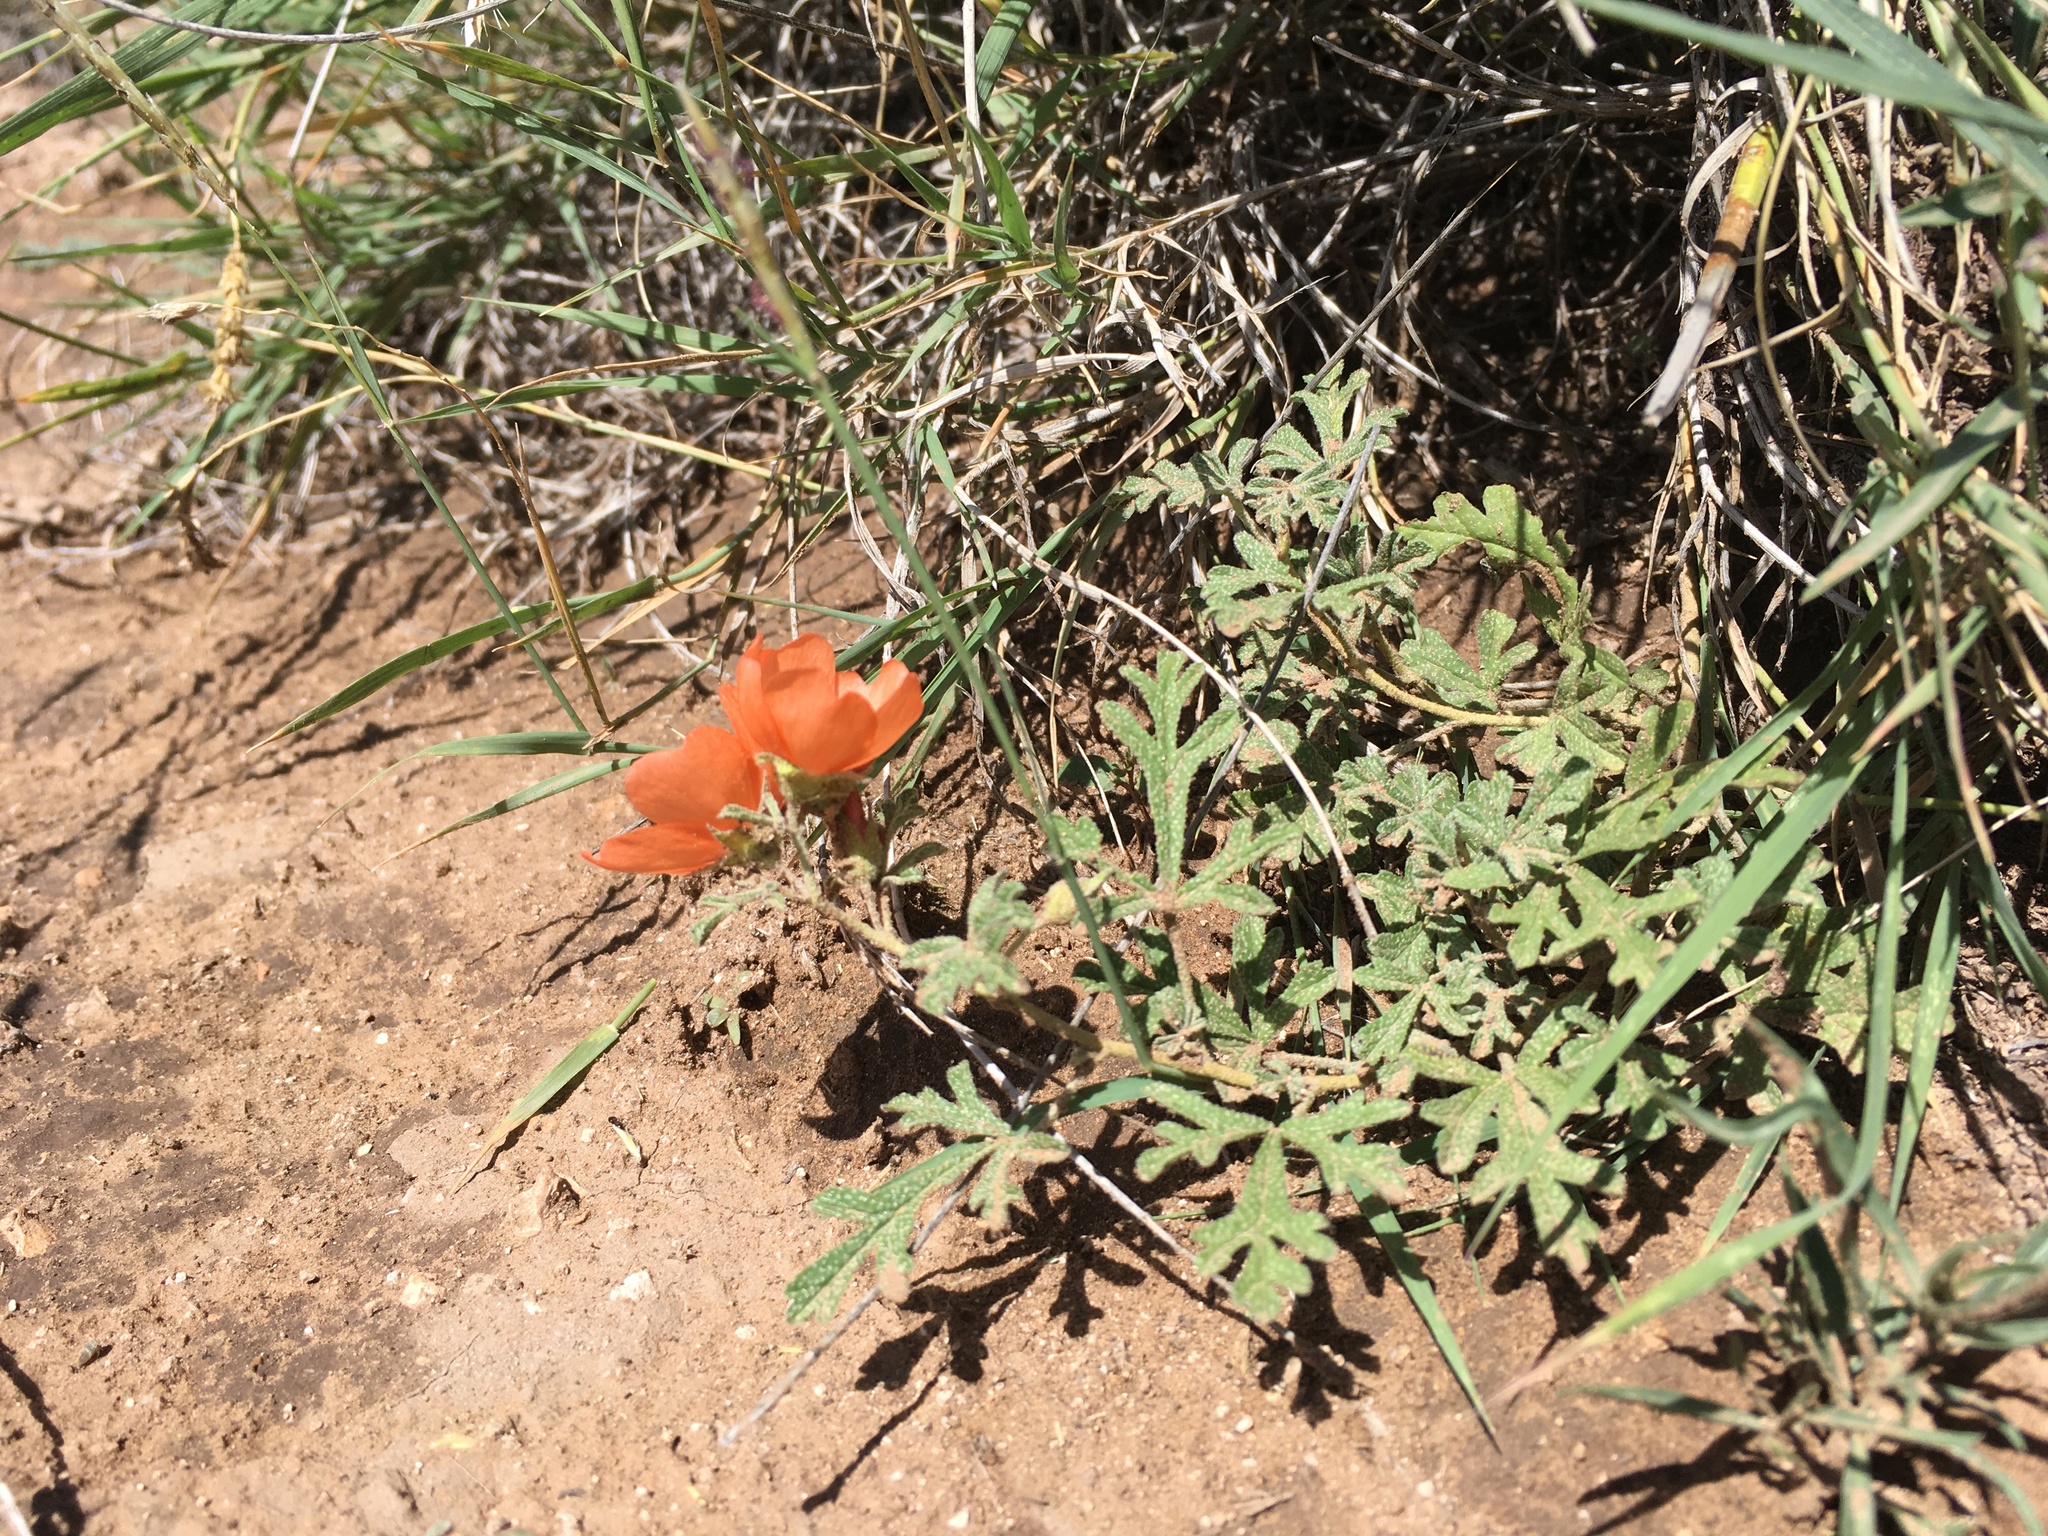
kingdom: Plantae
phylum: Tracheophyta
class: Magnoliopsida
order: Malvales
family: Malvaceae
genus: Sphaeralcea
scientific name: Sphaeralcea coccinea
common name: Moss-rose
